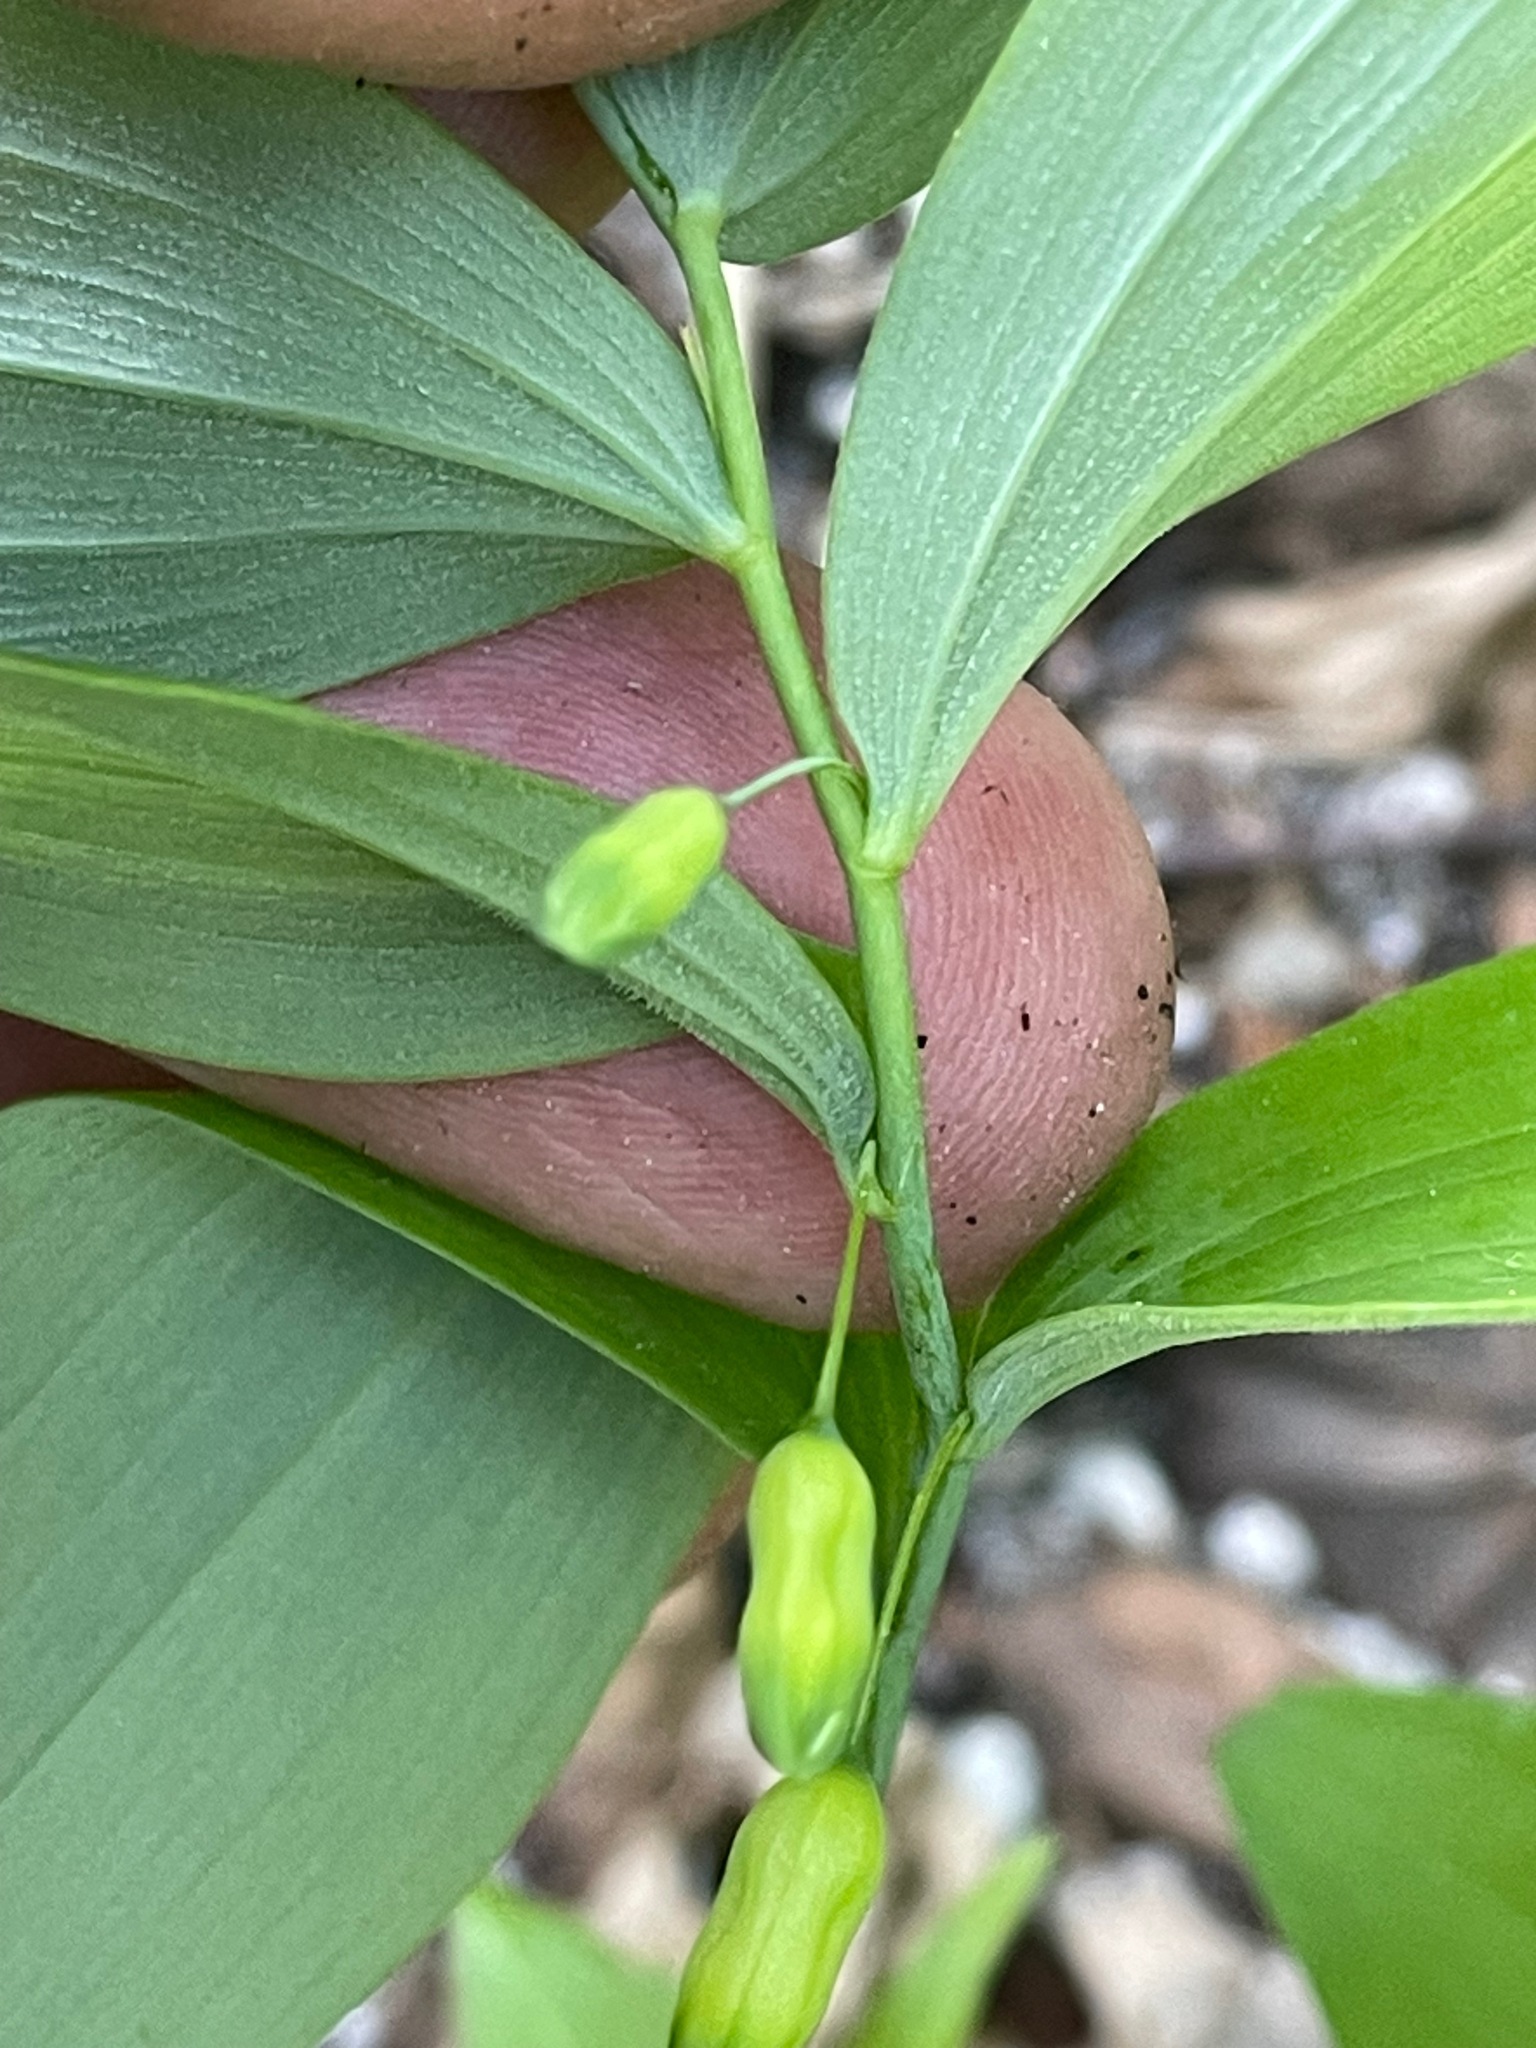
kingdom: Plantae
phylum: Tracheophyta
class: Liliopsida
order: Asparagales
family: Asparagaceae
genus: Polygonatum
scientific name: Polygonatum pubescens
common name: Downy solomon's seal
